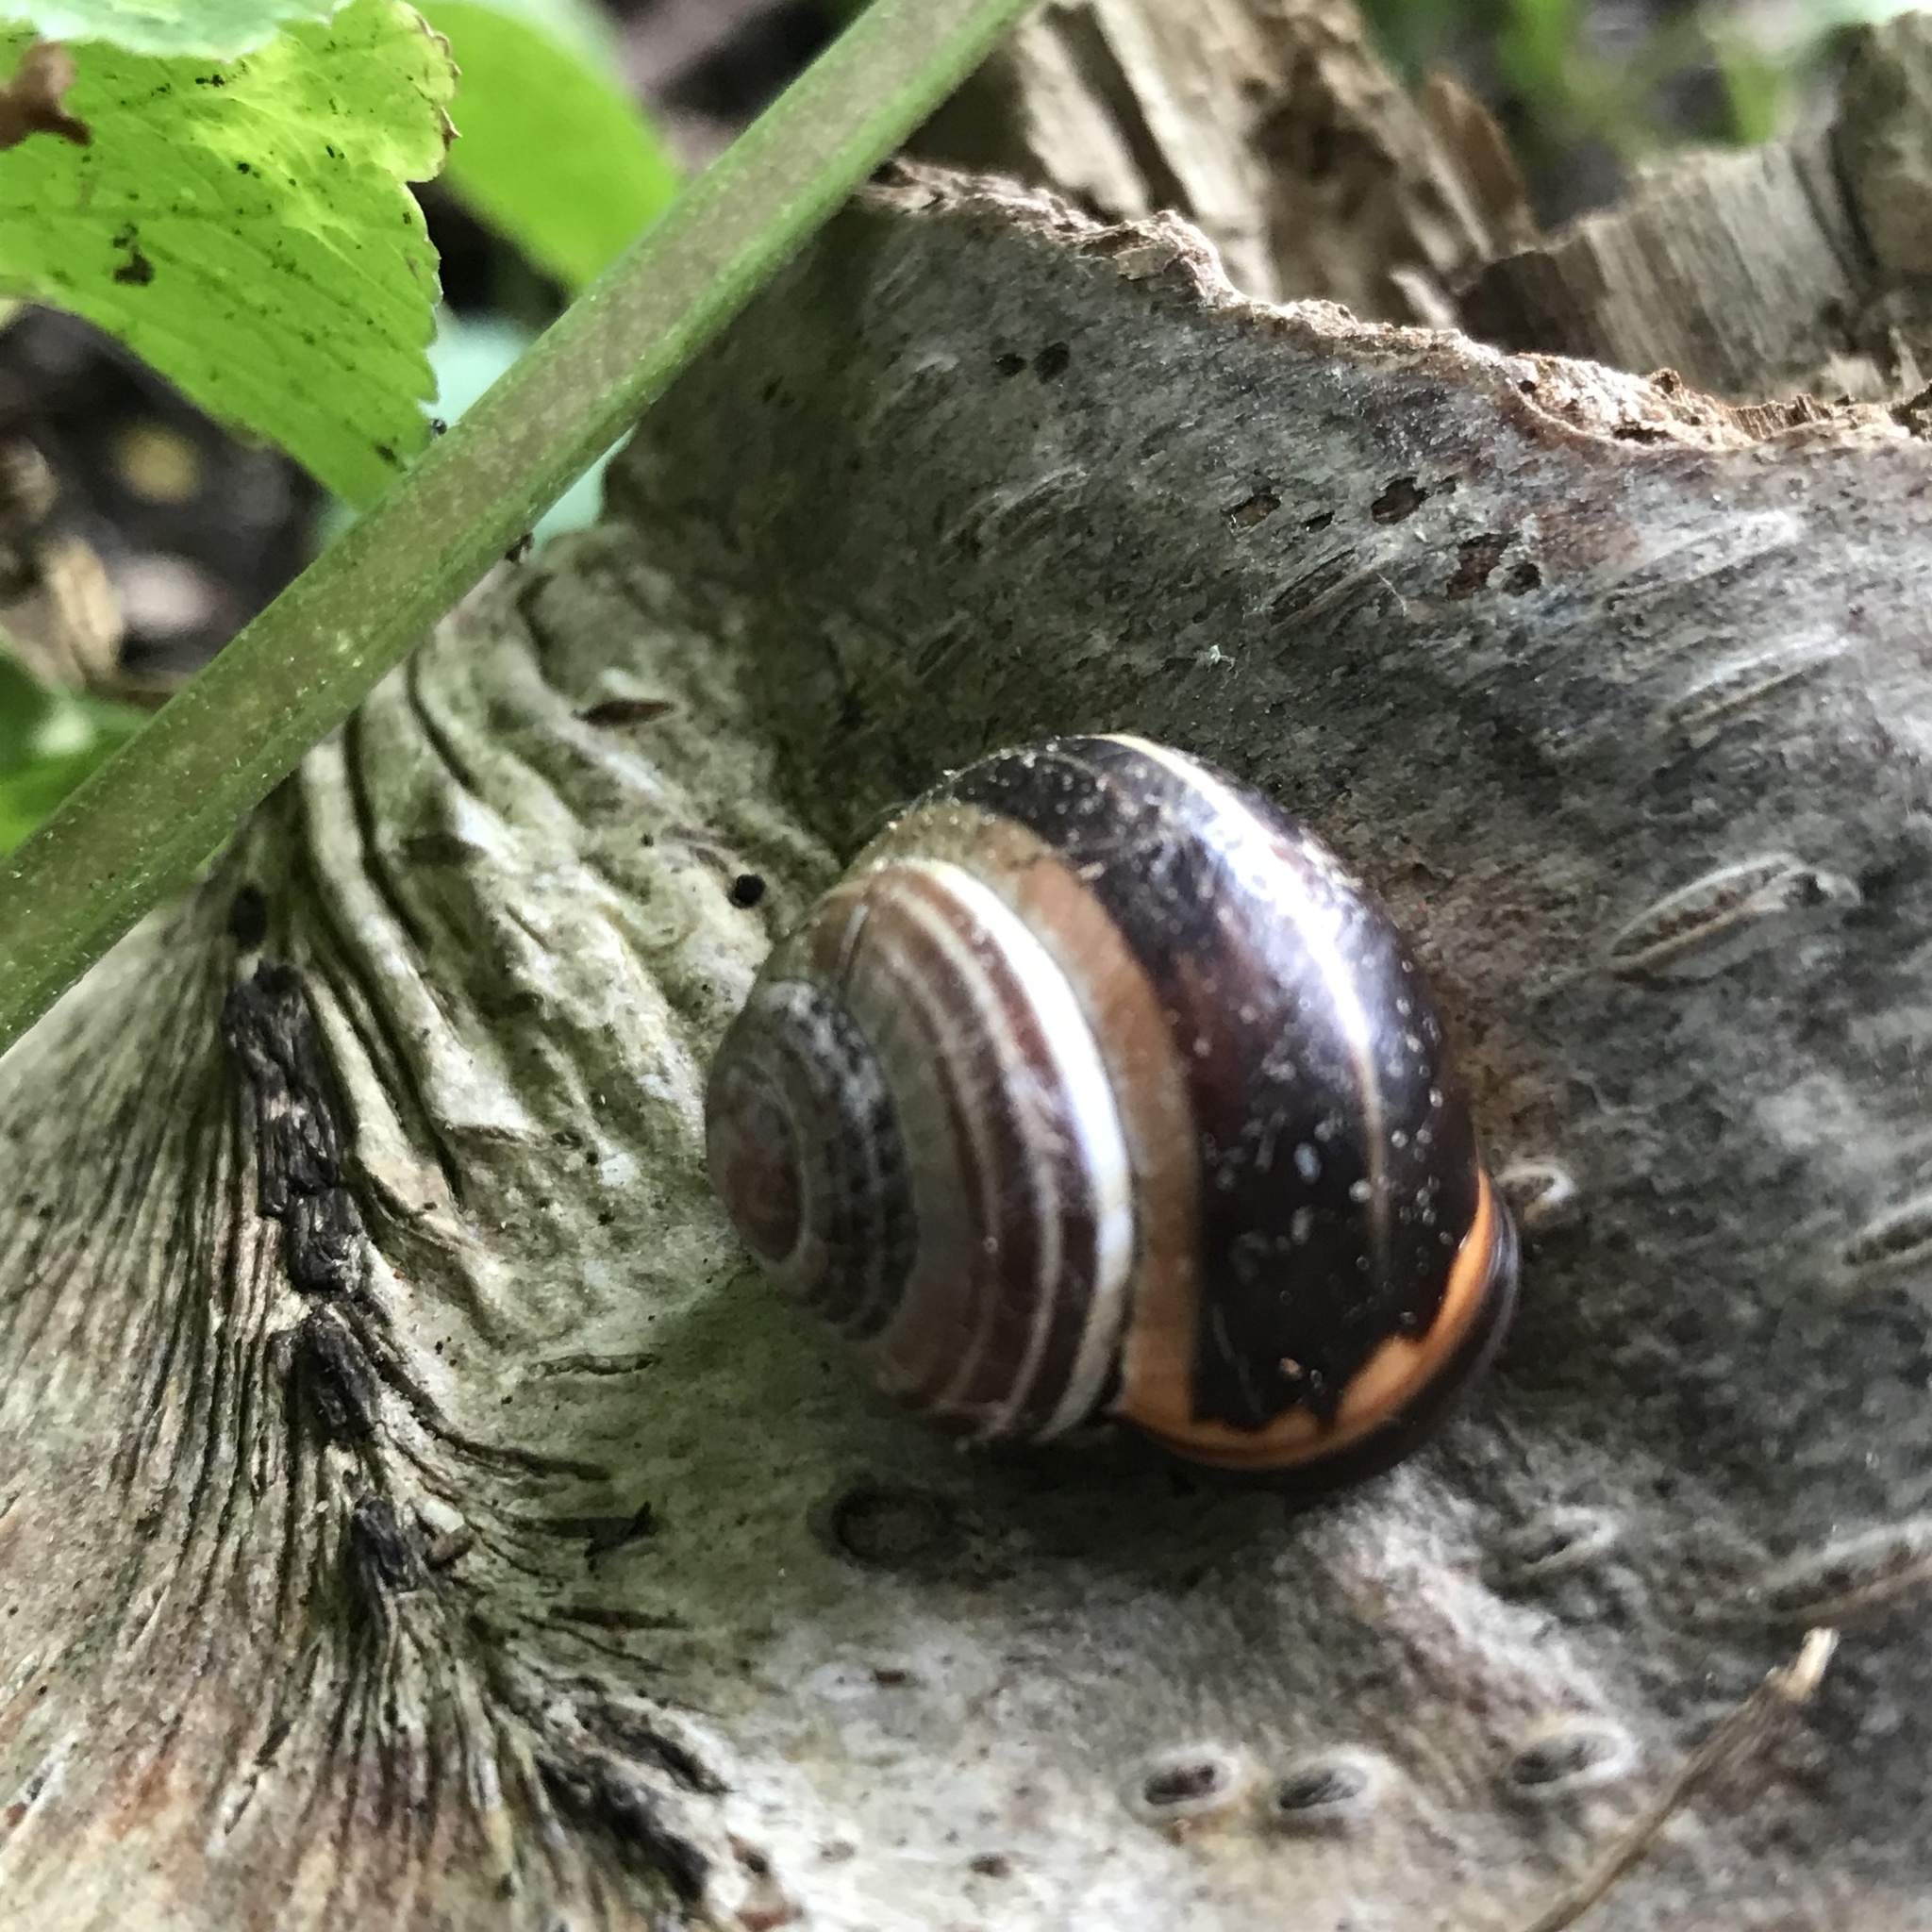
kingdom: Animalia
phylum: Mollusca
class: Gastropoda
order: Stylommatophora
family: Helicidae
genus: Cepaea
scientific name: Cepaea nemoralis
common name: Grovesnail
